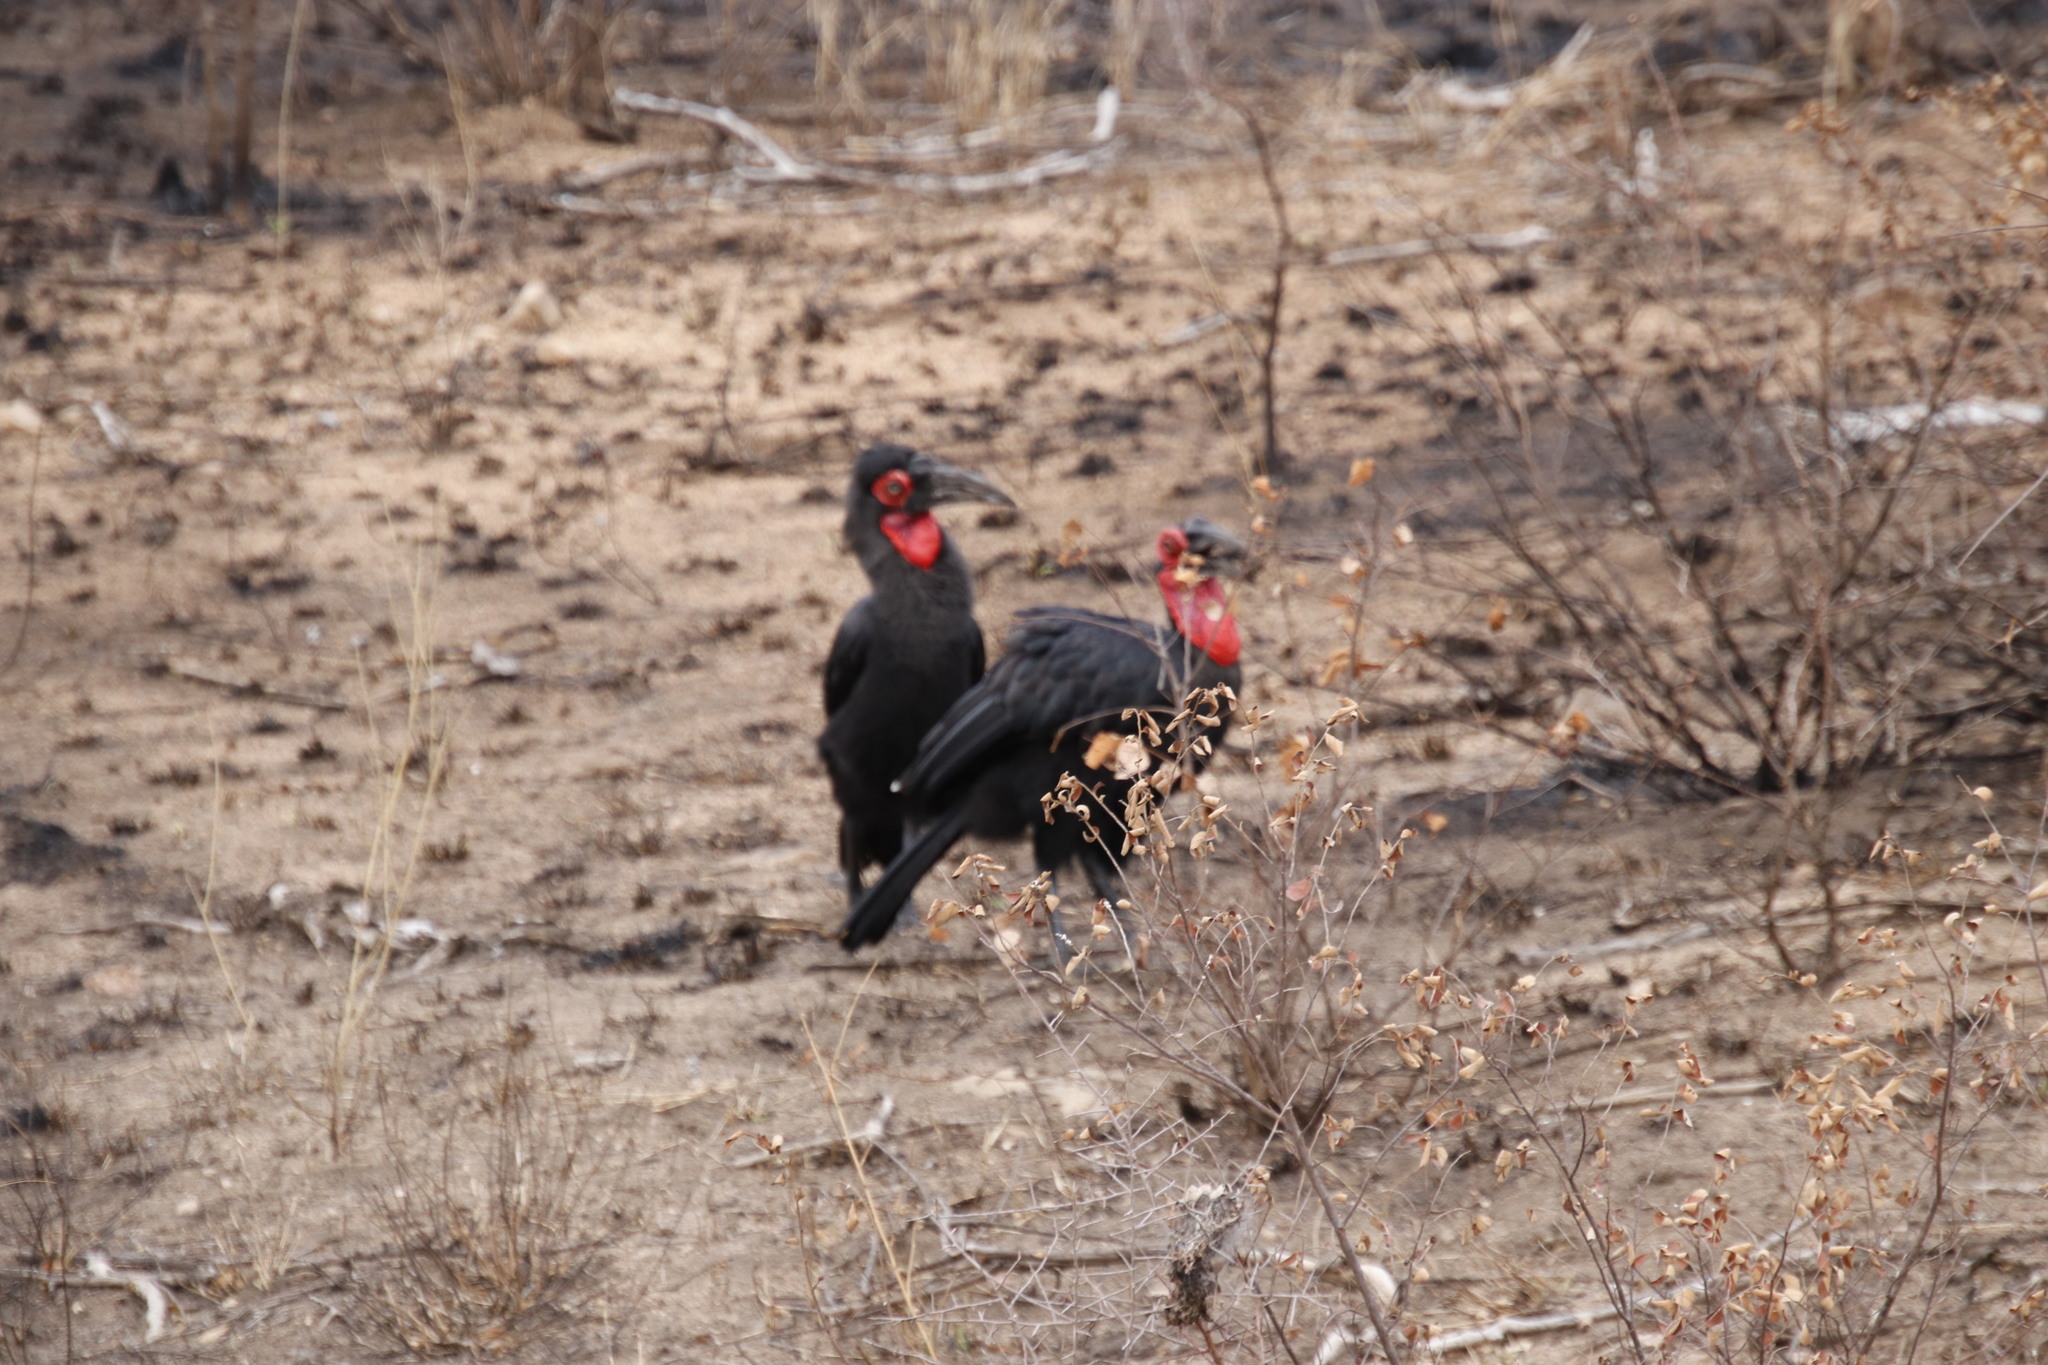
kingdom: Animalia
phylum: Chordata
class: Aves
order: Bucerotiformes
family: Bucorvidae
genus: Bucorvus
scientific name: Bucorvus leadbeateri
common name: Southern ground-hornbill
